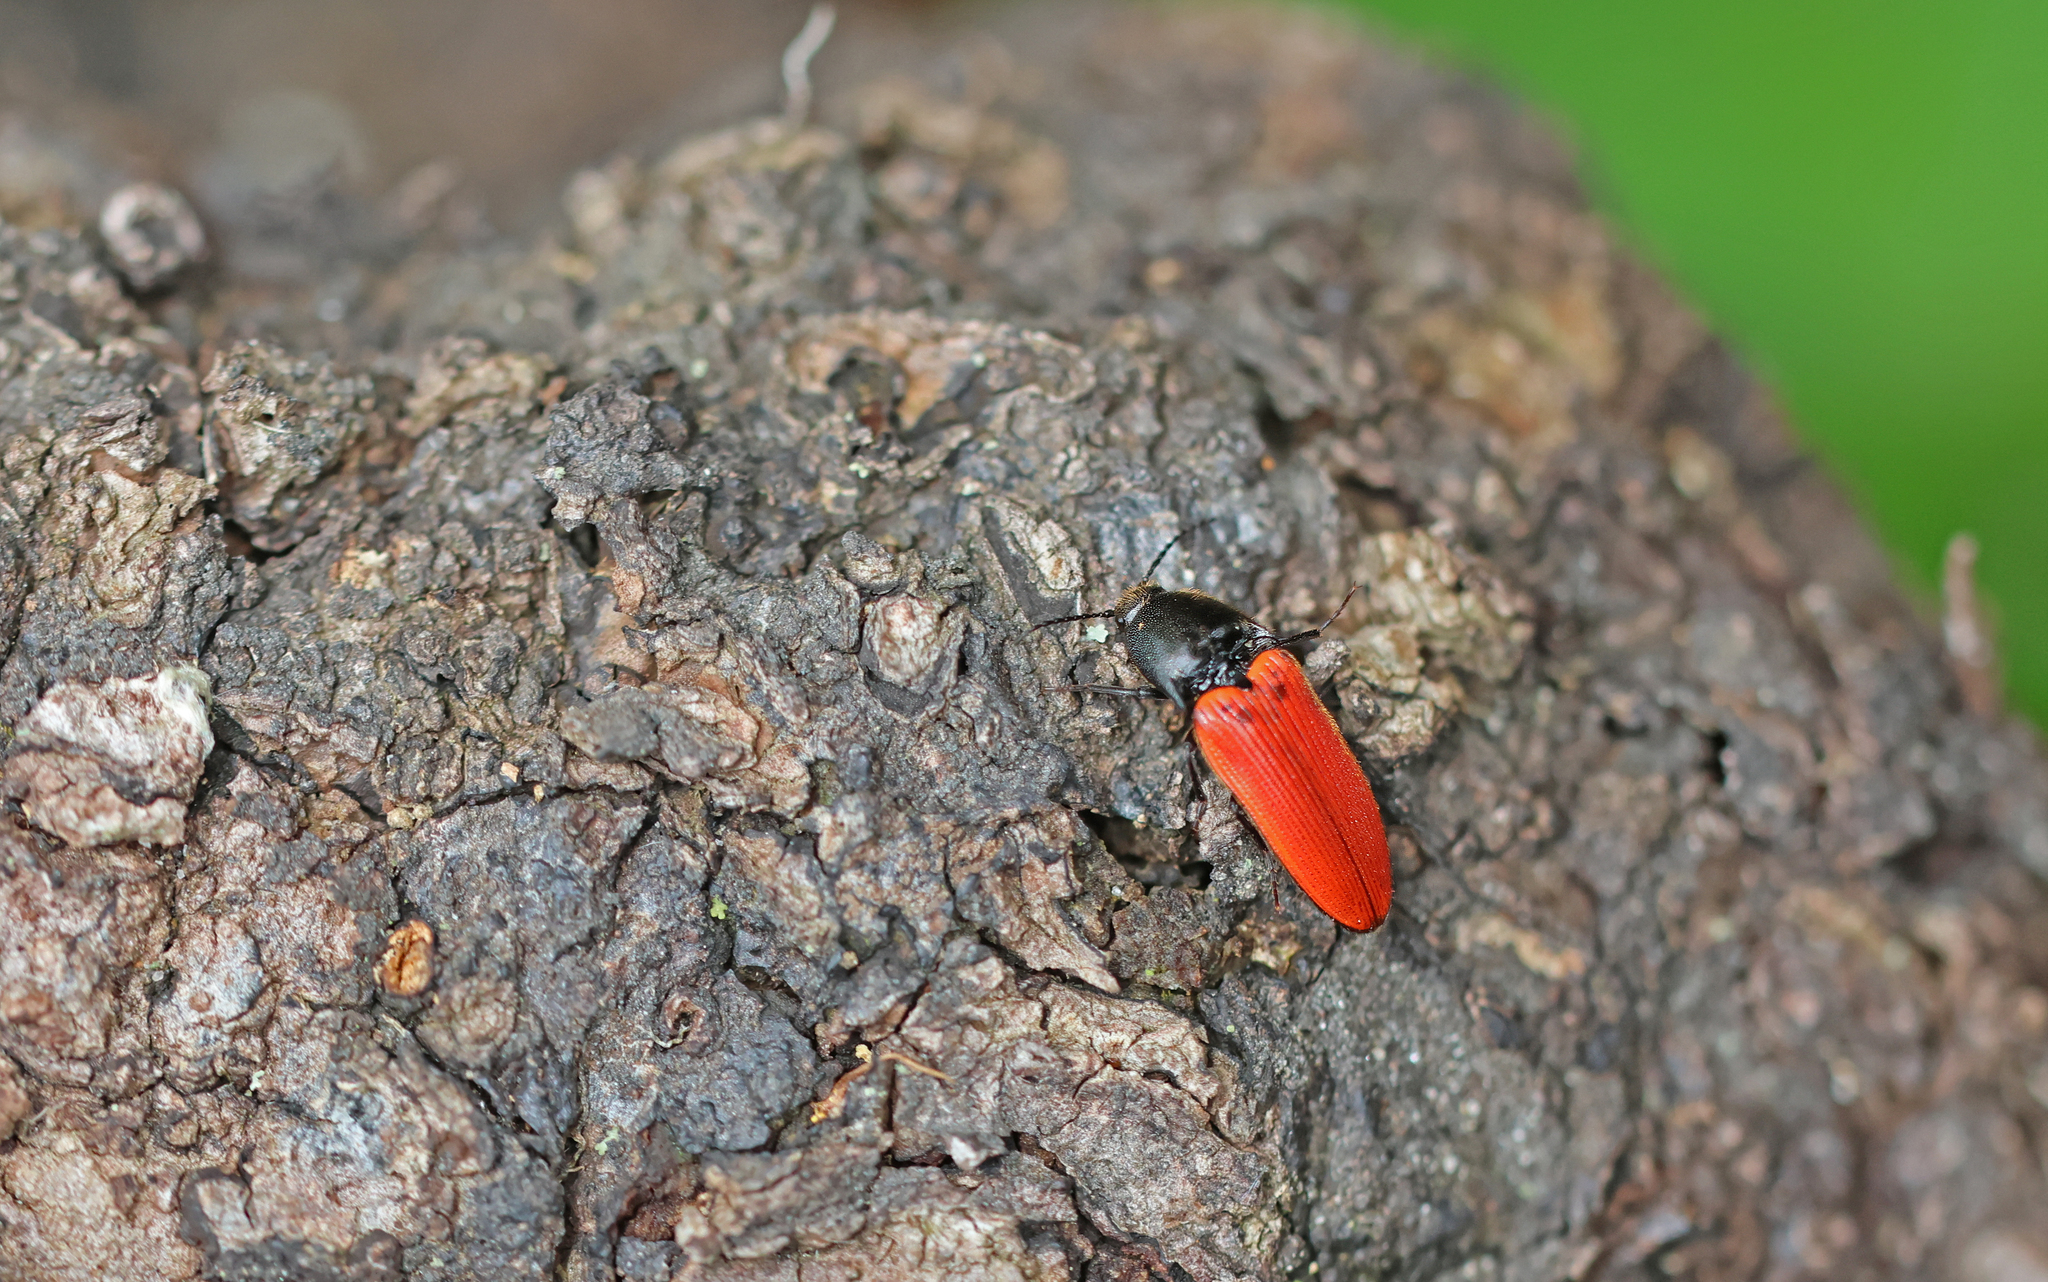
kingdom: Animalia
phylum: Arthropoda
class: Insecta
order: Coleoptera
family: Elateridae
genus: Ampedus
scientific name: Ampedus cinnabarinus
